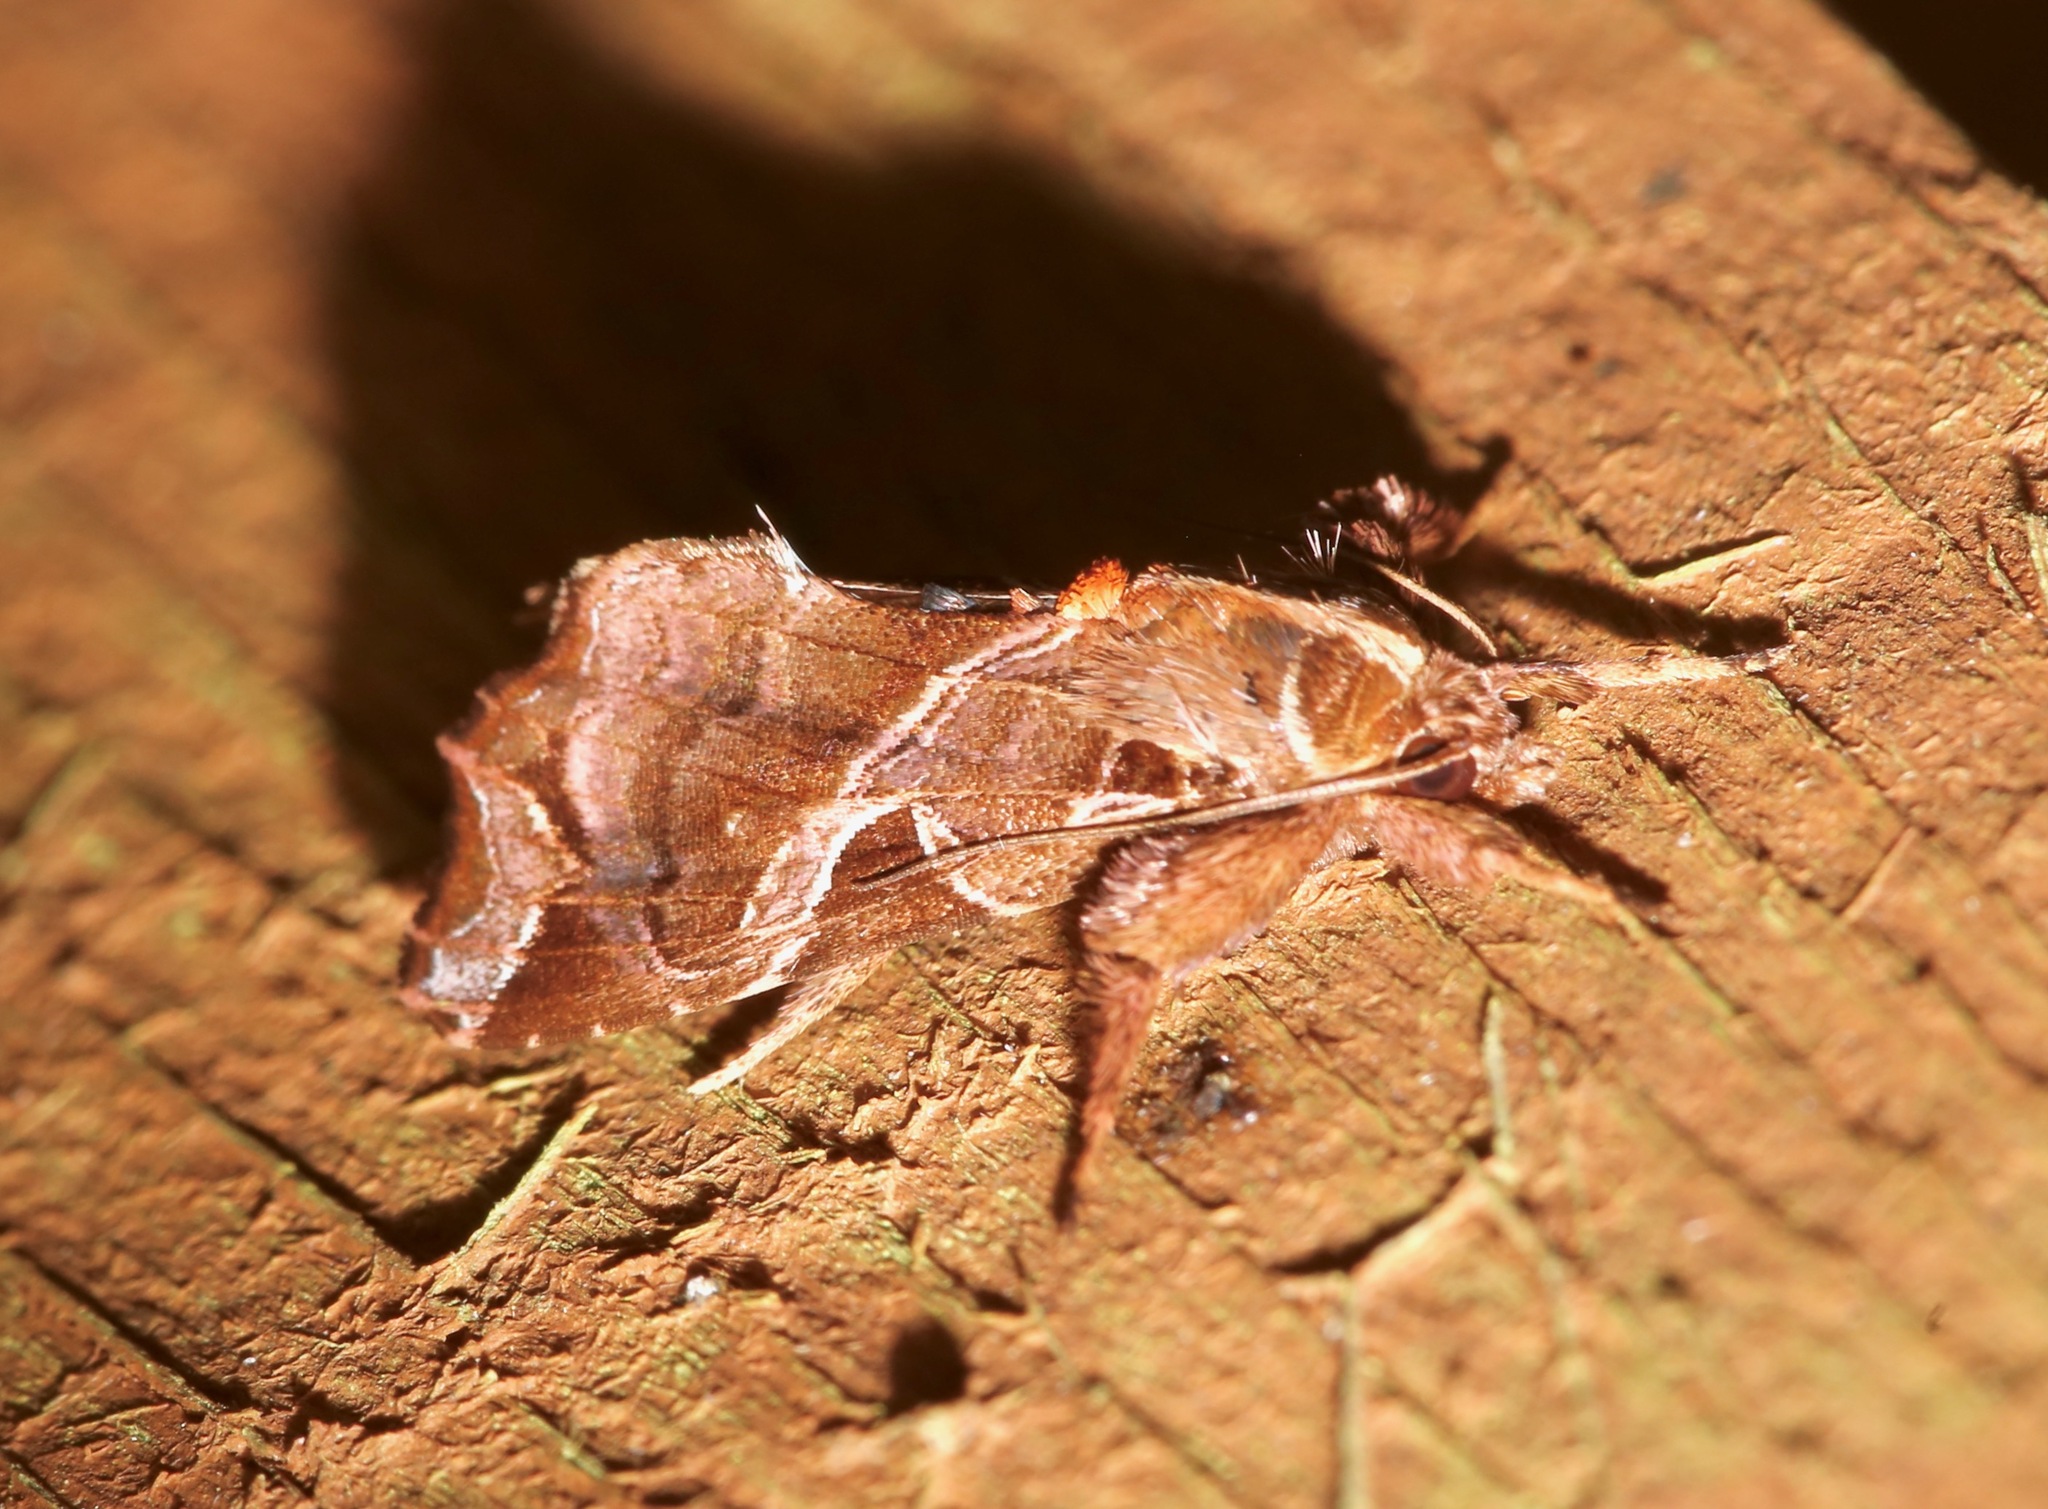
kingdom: Animalia
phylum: Arthropoda
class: Insecta
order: Lepidoptera
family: Noctuidae
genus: Callopistria
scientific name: Callopistria floridensis
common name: Florida fern moth
